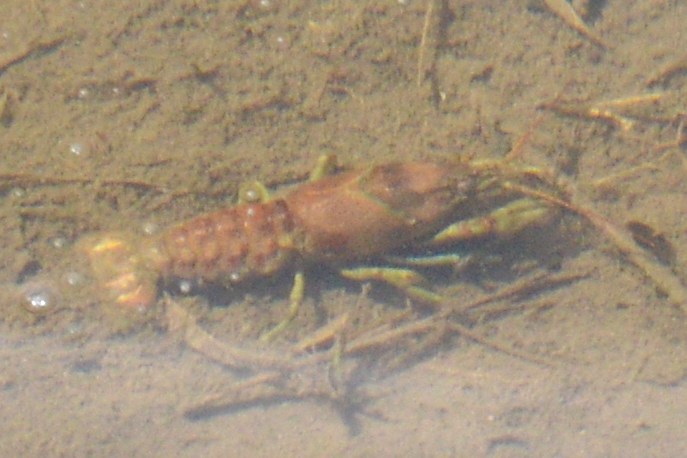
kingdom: Animalia
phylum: Arthropoda
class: Malacostraca
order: Decapoda
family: Cambaridae
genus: Faxonius
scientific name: Faxonius rusticus
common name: Rusty crayfish
